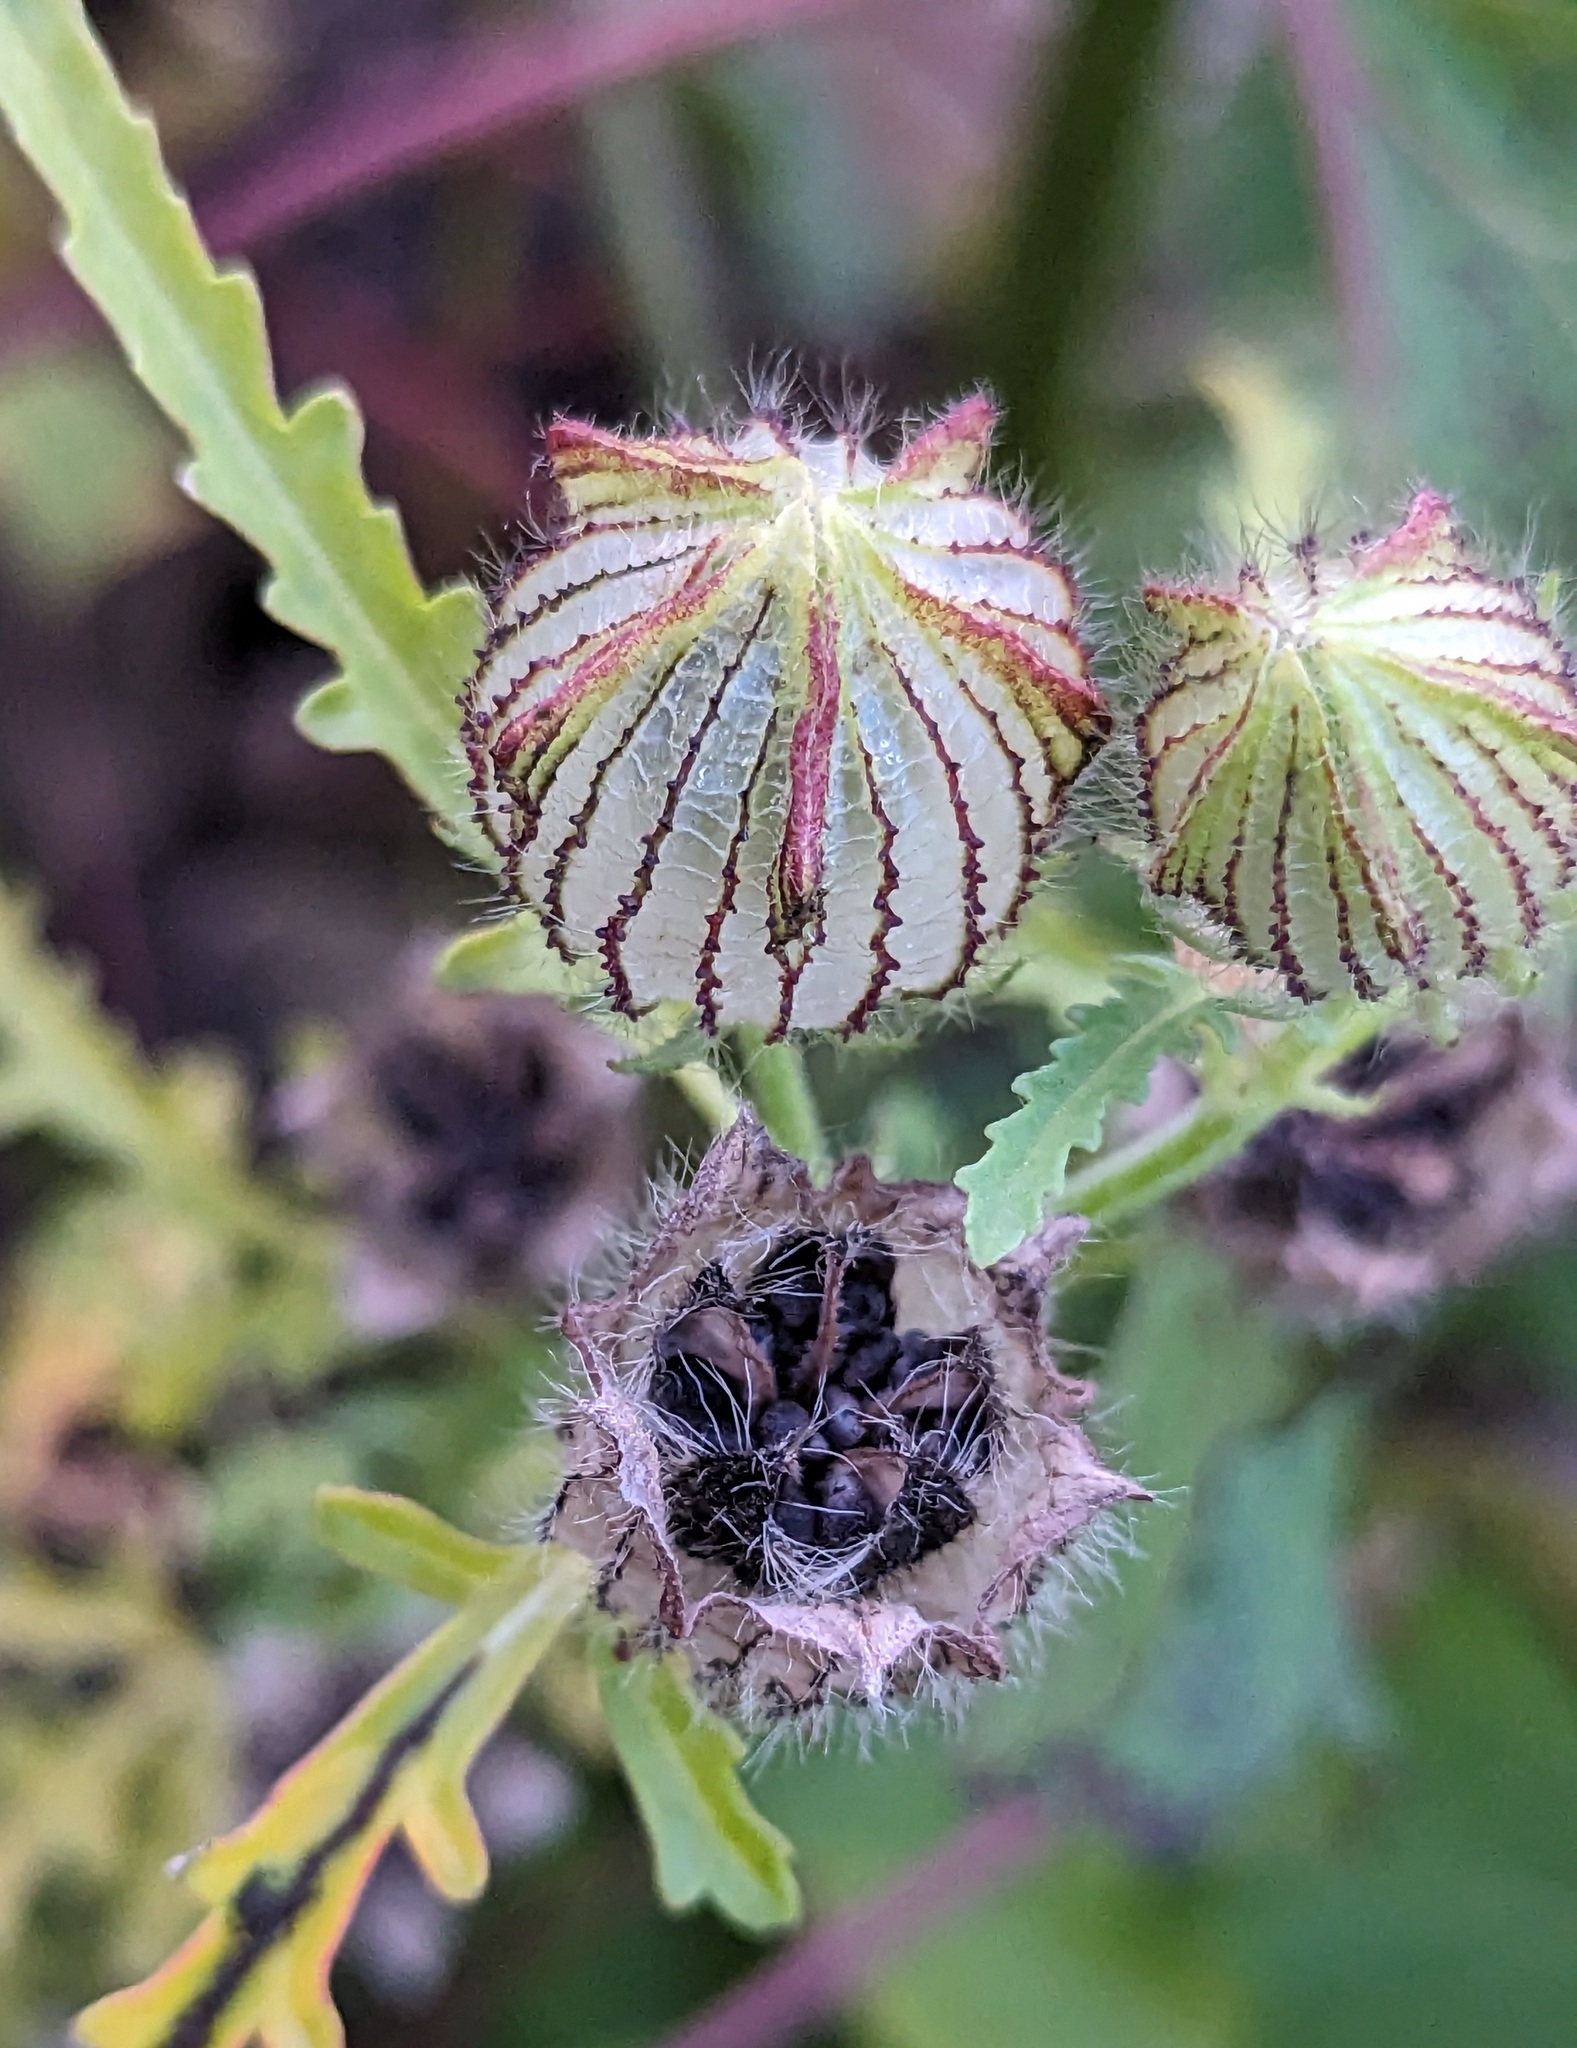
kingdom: Plantae
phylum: Tracheophyta
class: Magnoliopsida
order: Malvales
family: Malvaceae
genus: Hibiscus
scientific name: Hibiscus trionum
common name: Bladder ketmia
